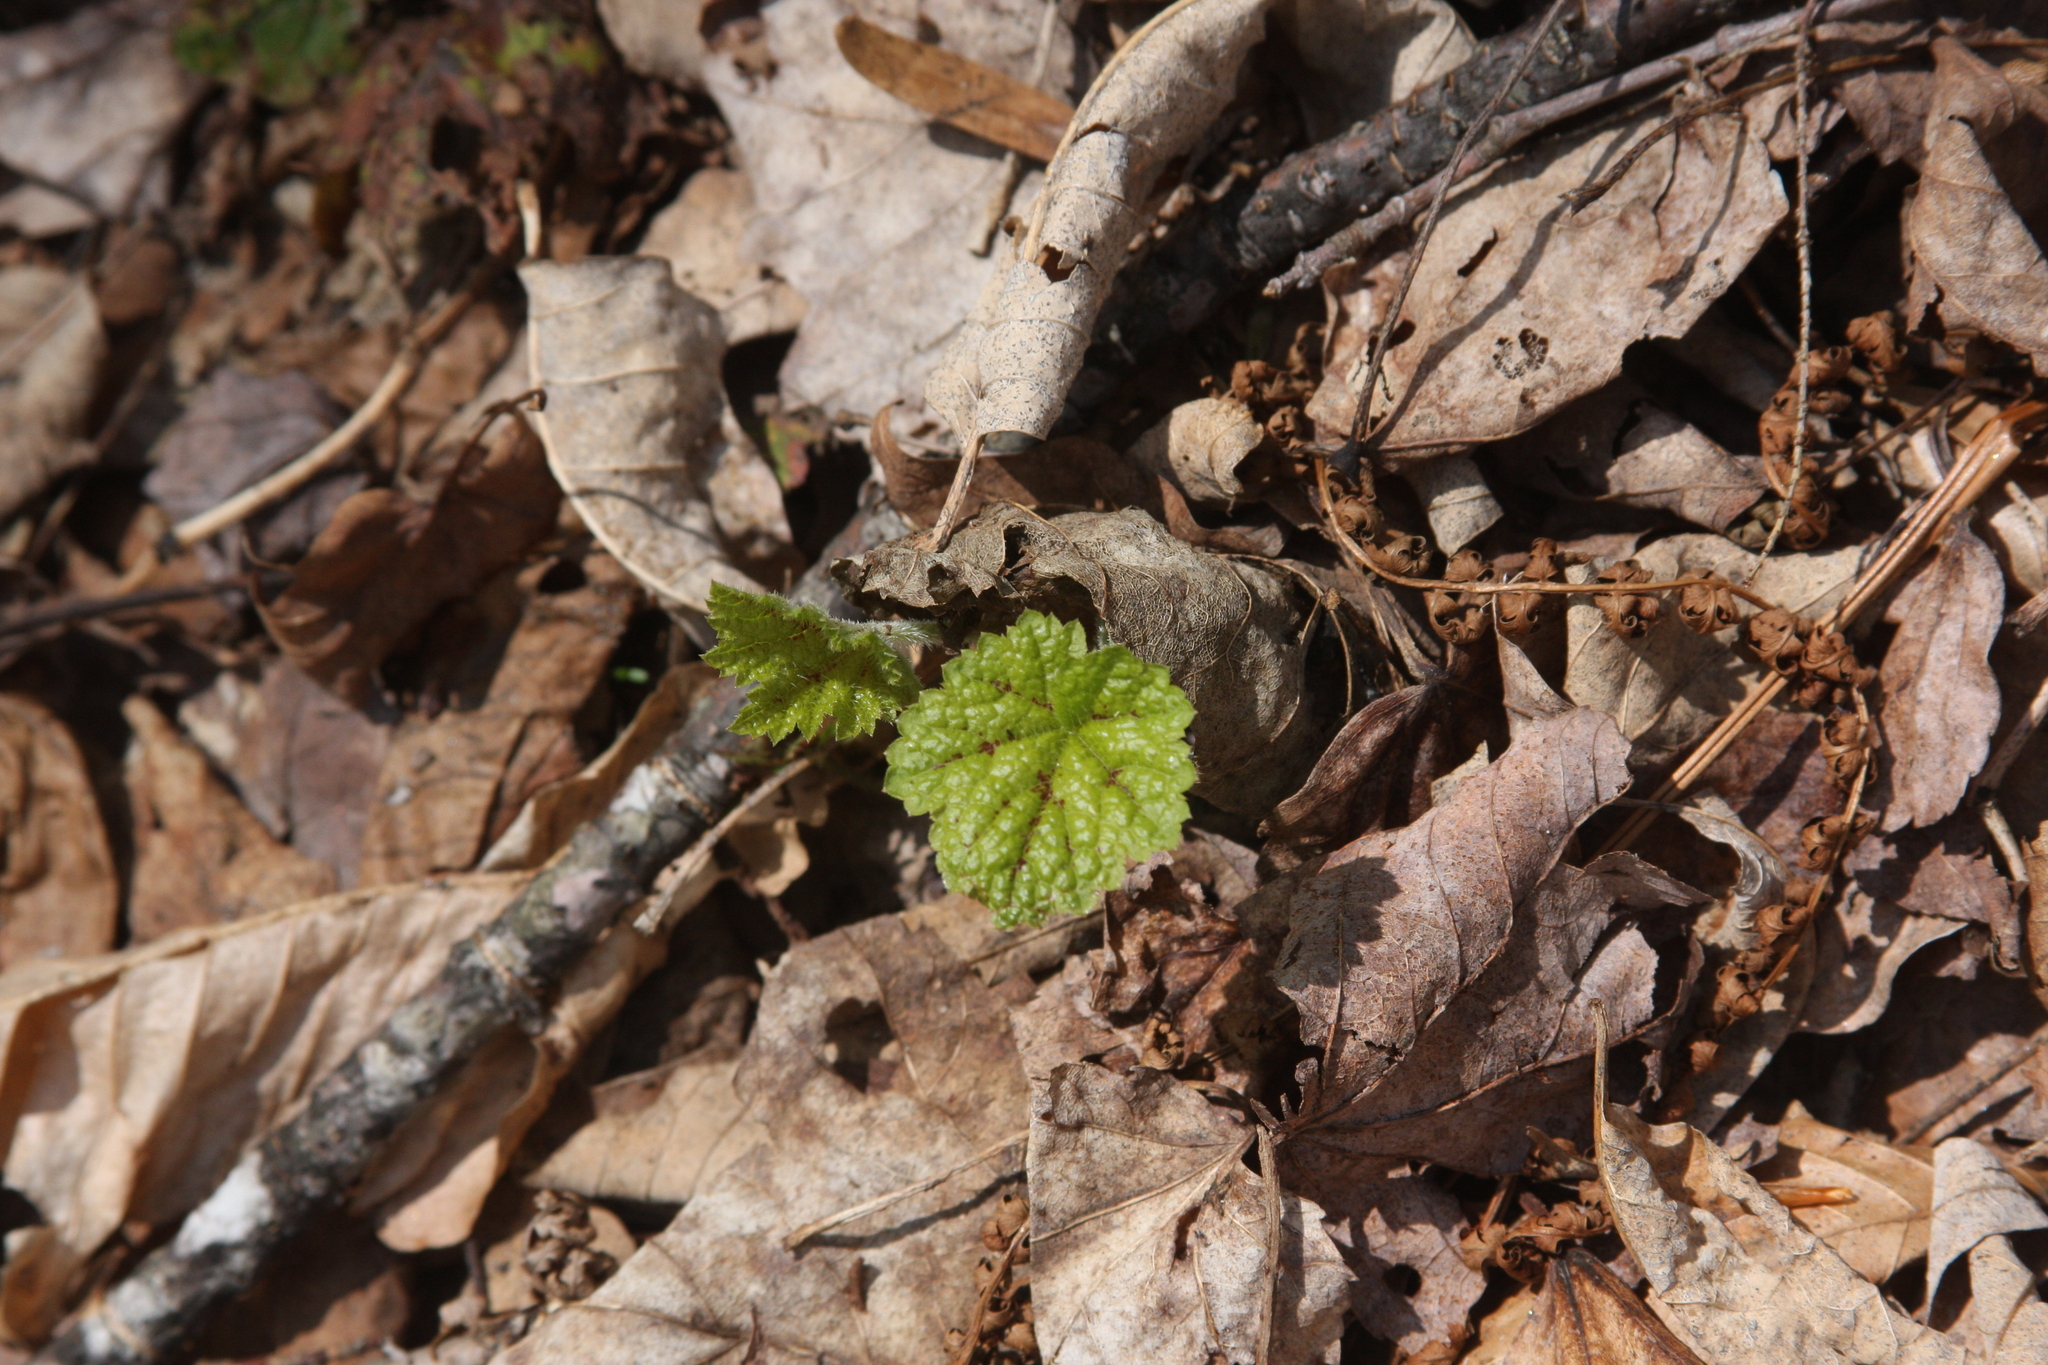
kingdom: Plantae
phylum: Tracheophyta
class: Magnoliopsida
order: Saxifragales
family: Saxifragaceae
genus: Tiarella
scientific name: Tiarella stolonifera
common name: Stoloniferous foamflower
